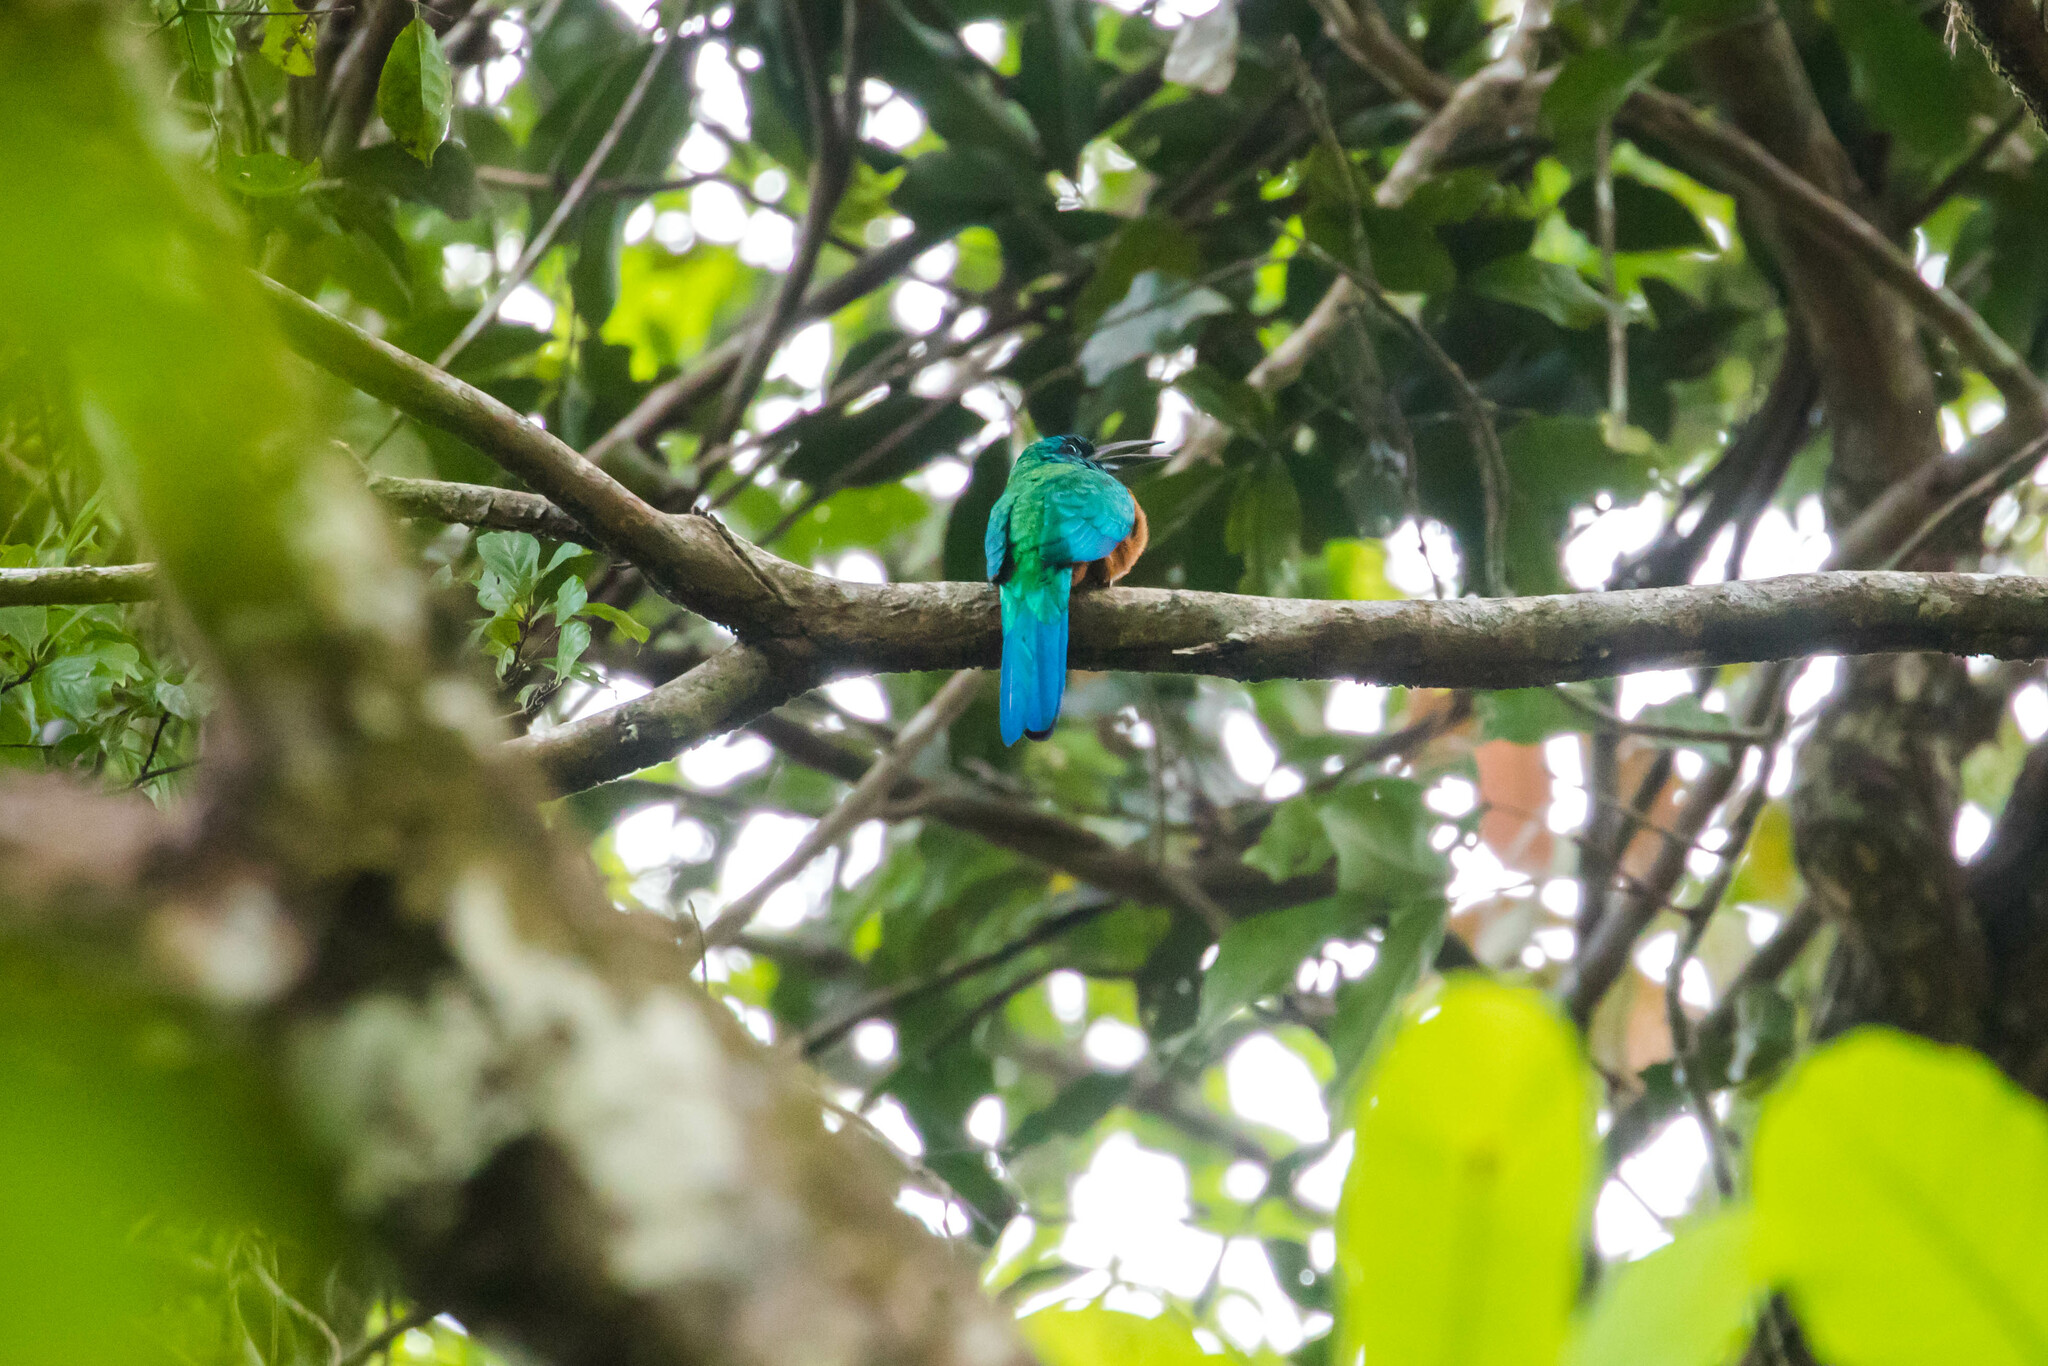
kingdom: Animalia
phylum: Chordata
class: Aves
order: Piciformes
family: Galbulidae
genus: Jacamerops
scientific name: Jacamerops aureus
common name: Great jacamar
